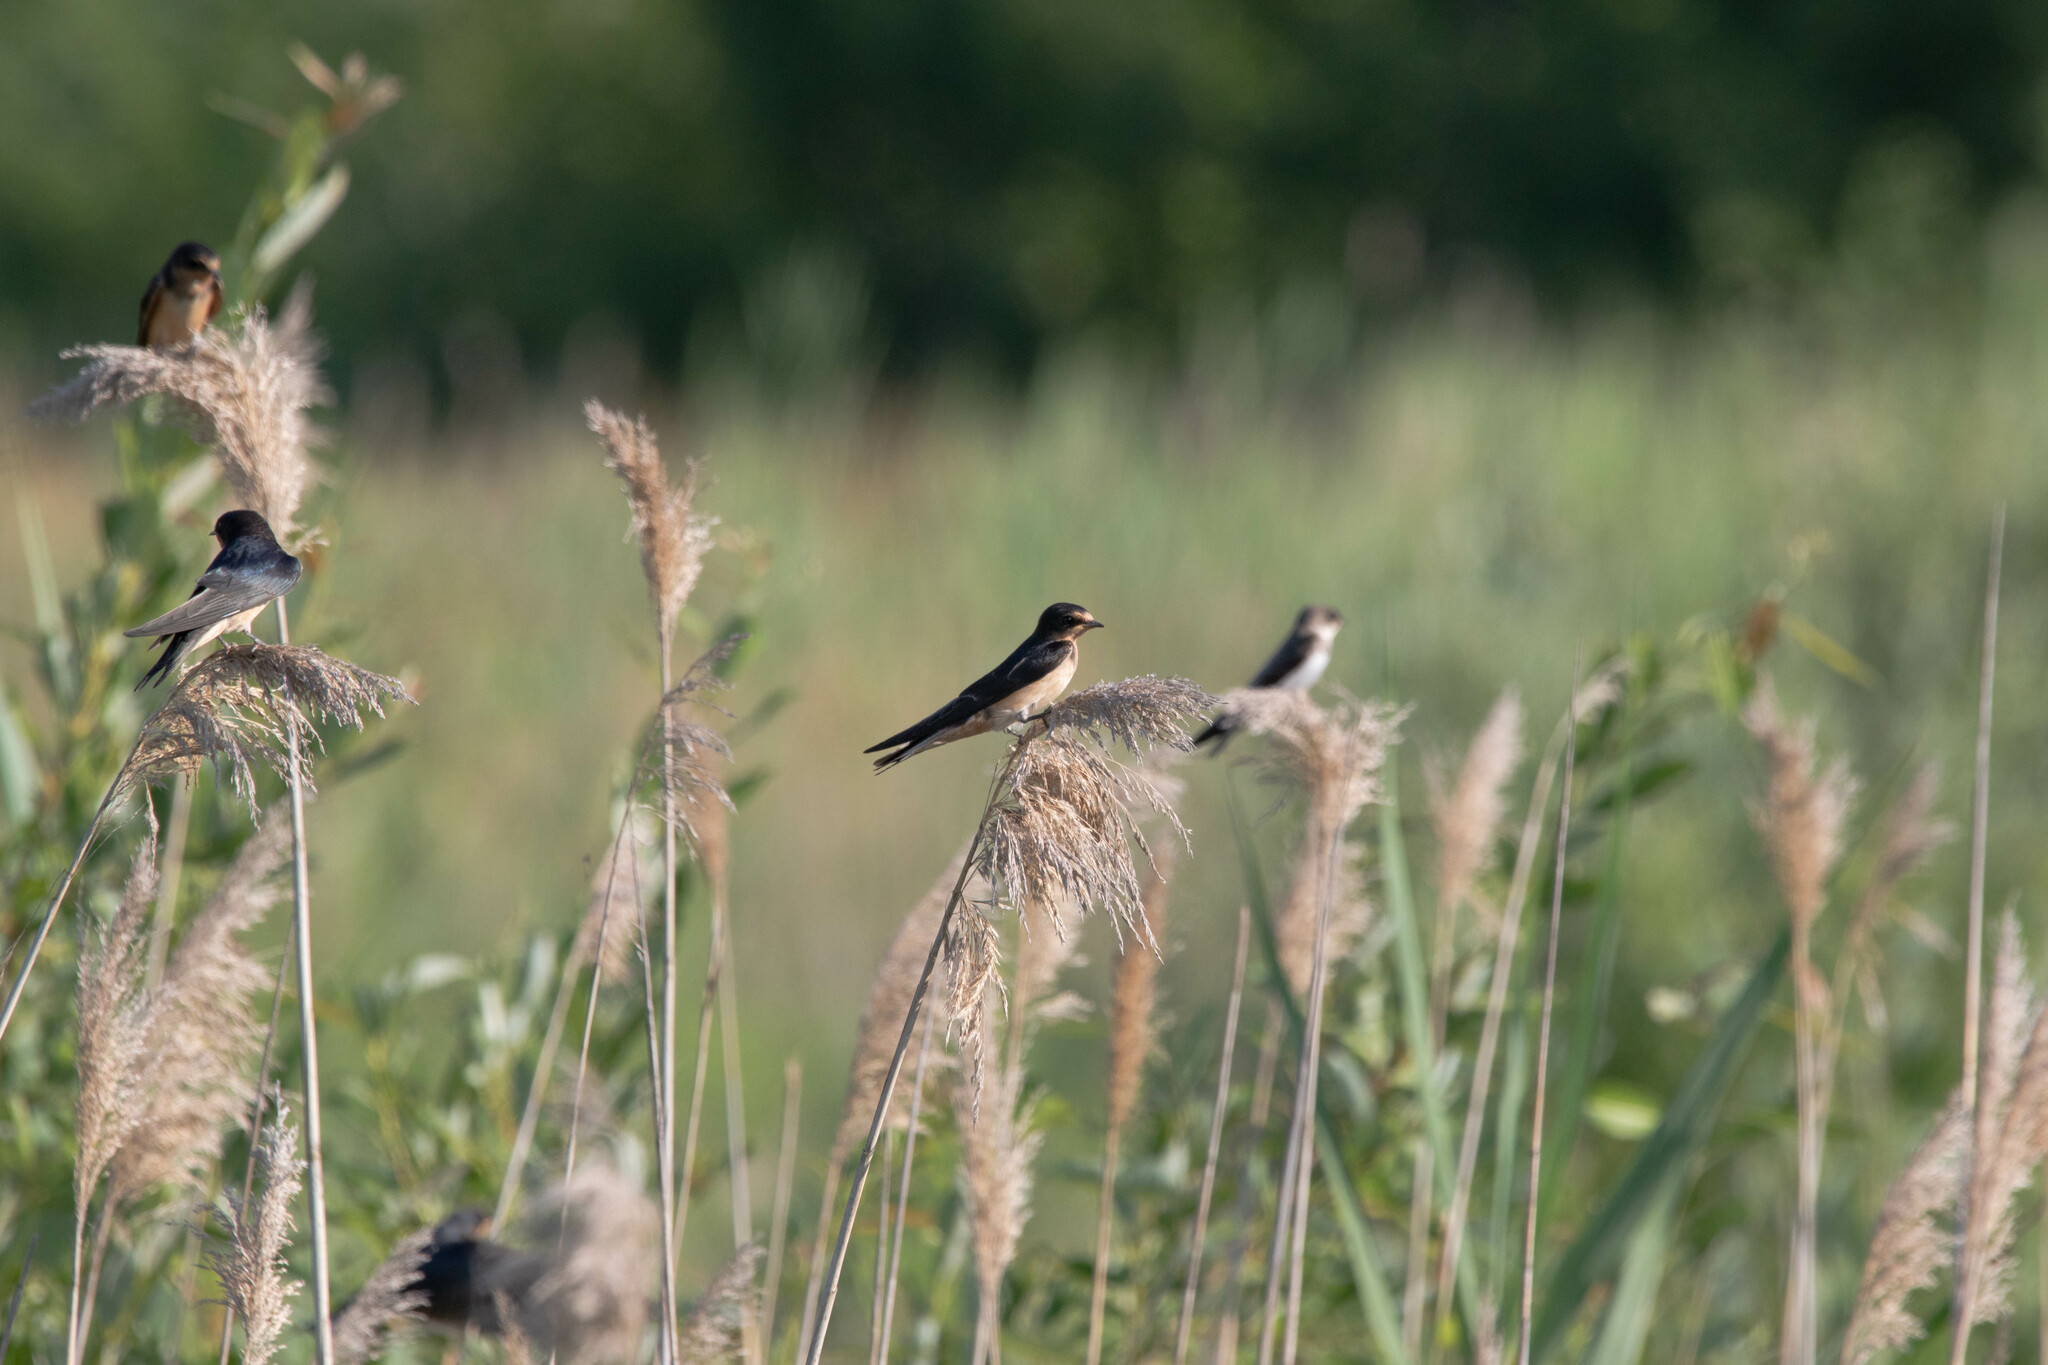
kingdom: Animalia
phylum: Chordata
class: Aves
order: Passeriformes
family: Hirundinidae
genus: Hirundo
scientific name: Hirundo rustica
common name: Barn swallow
